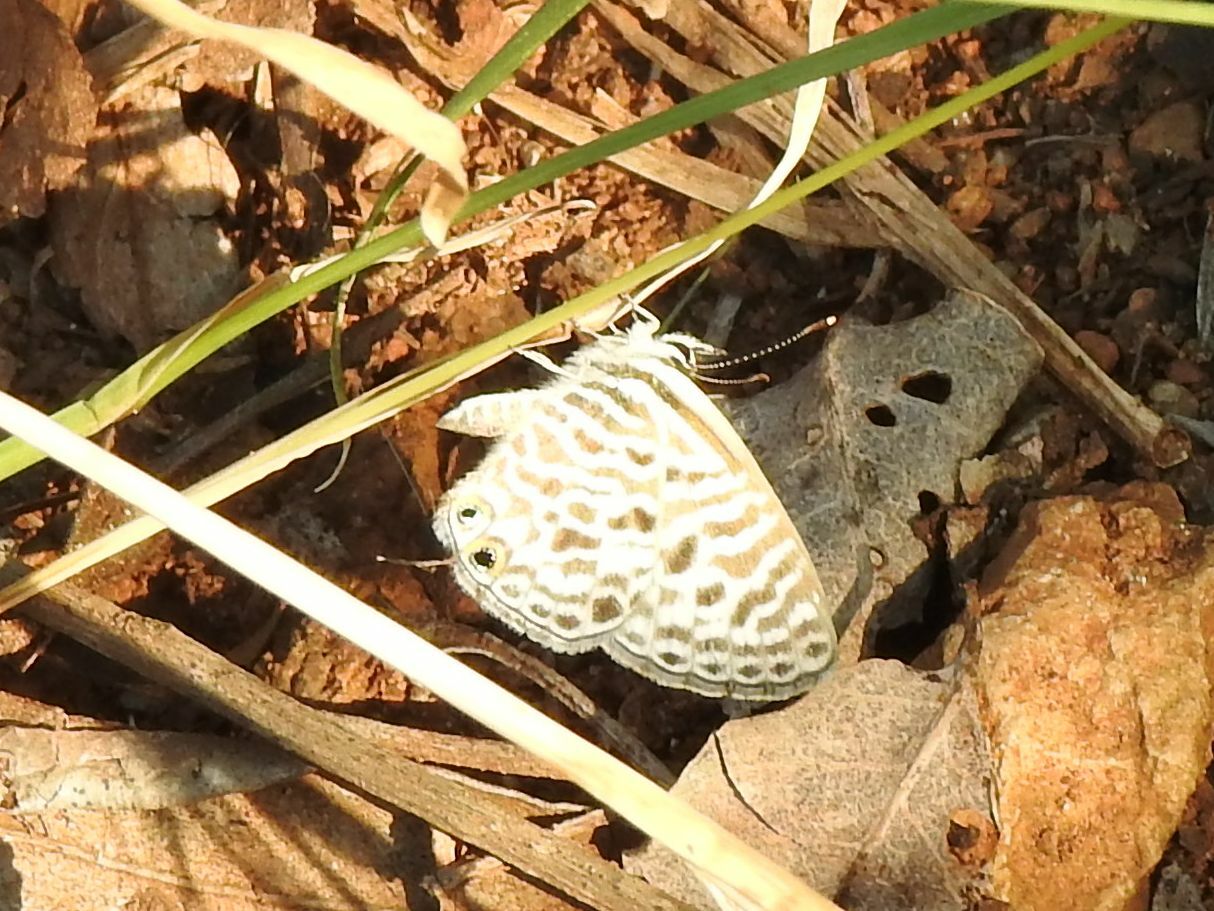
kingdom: Animalia
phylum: Arthropoda
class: Insecta
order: Lepidoptera
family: Lycaenidae
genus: Leptotes
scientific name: Leptotes
